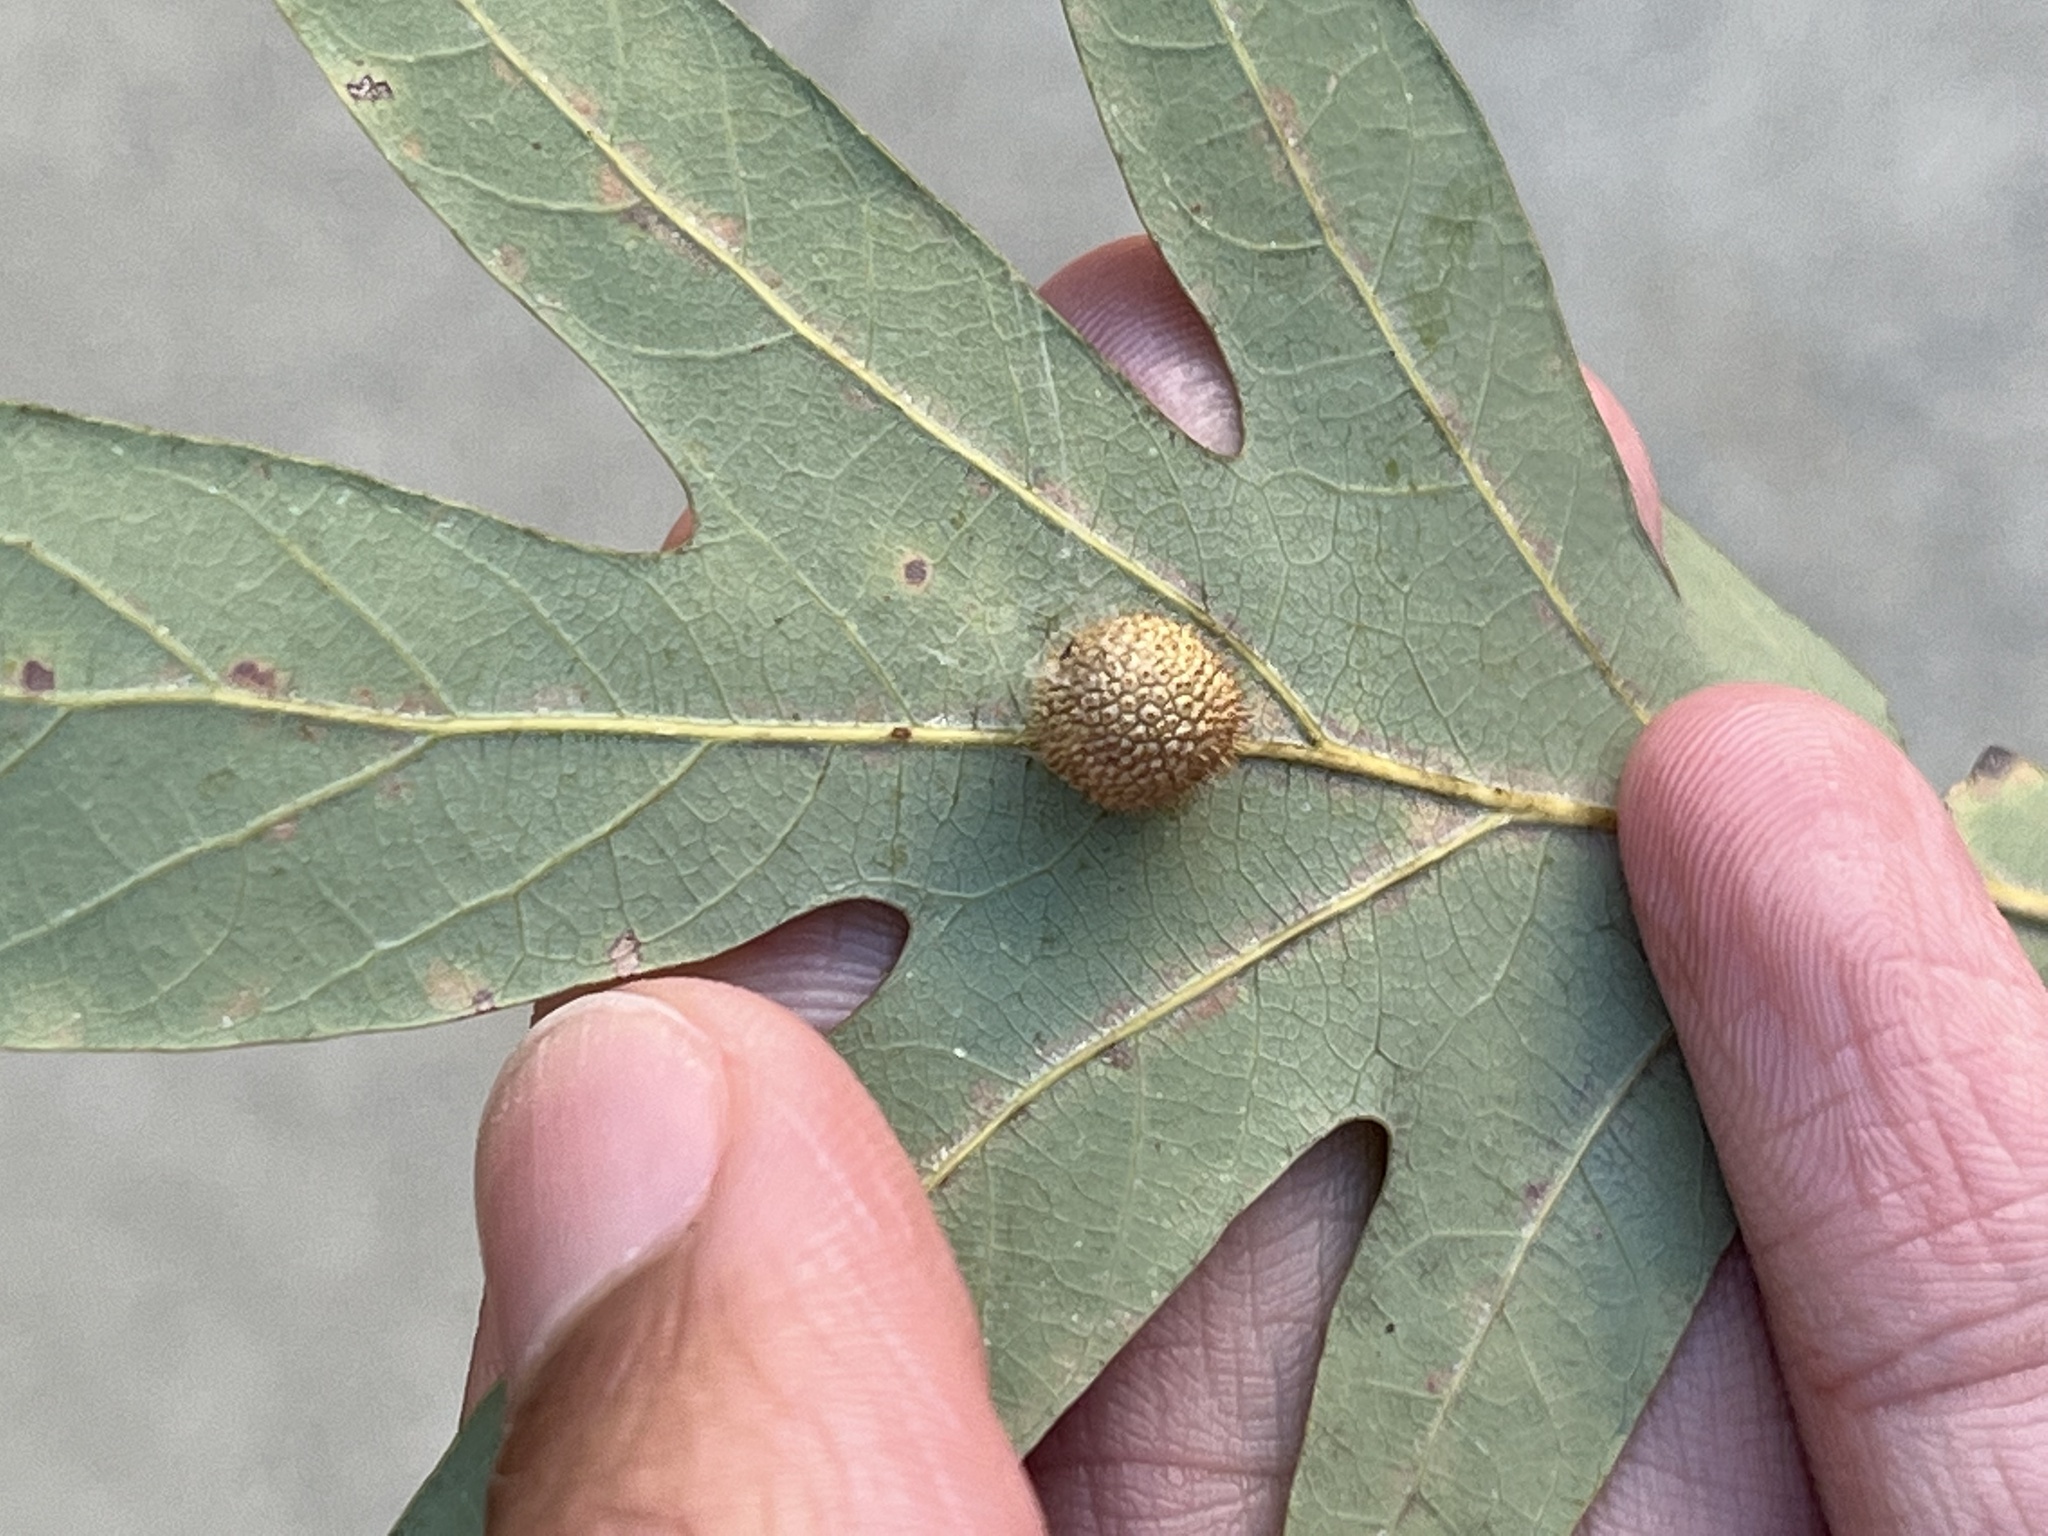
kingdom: Animalia
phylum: Arthropoda
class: Insecta
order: Hymenoptera
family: Cynipidae
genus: Acraspis
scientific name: Acraspis erinacei
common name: Hedgehog gall wasp
